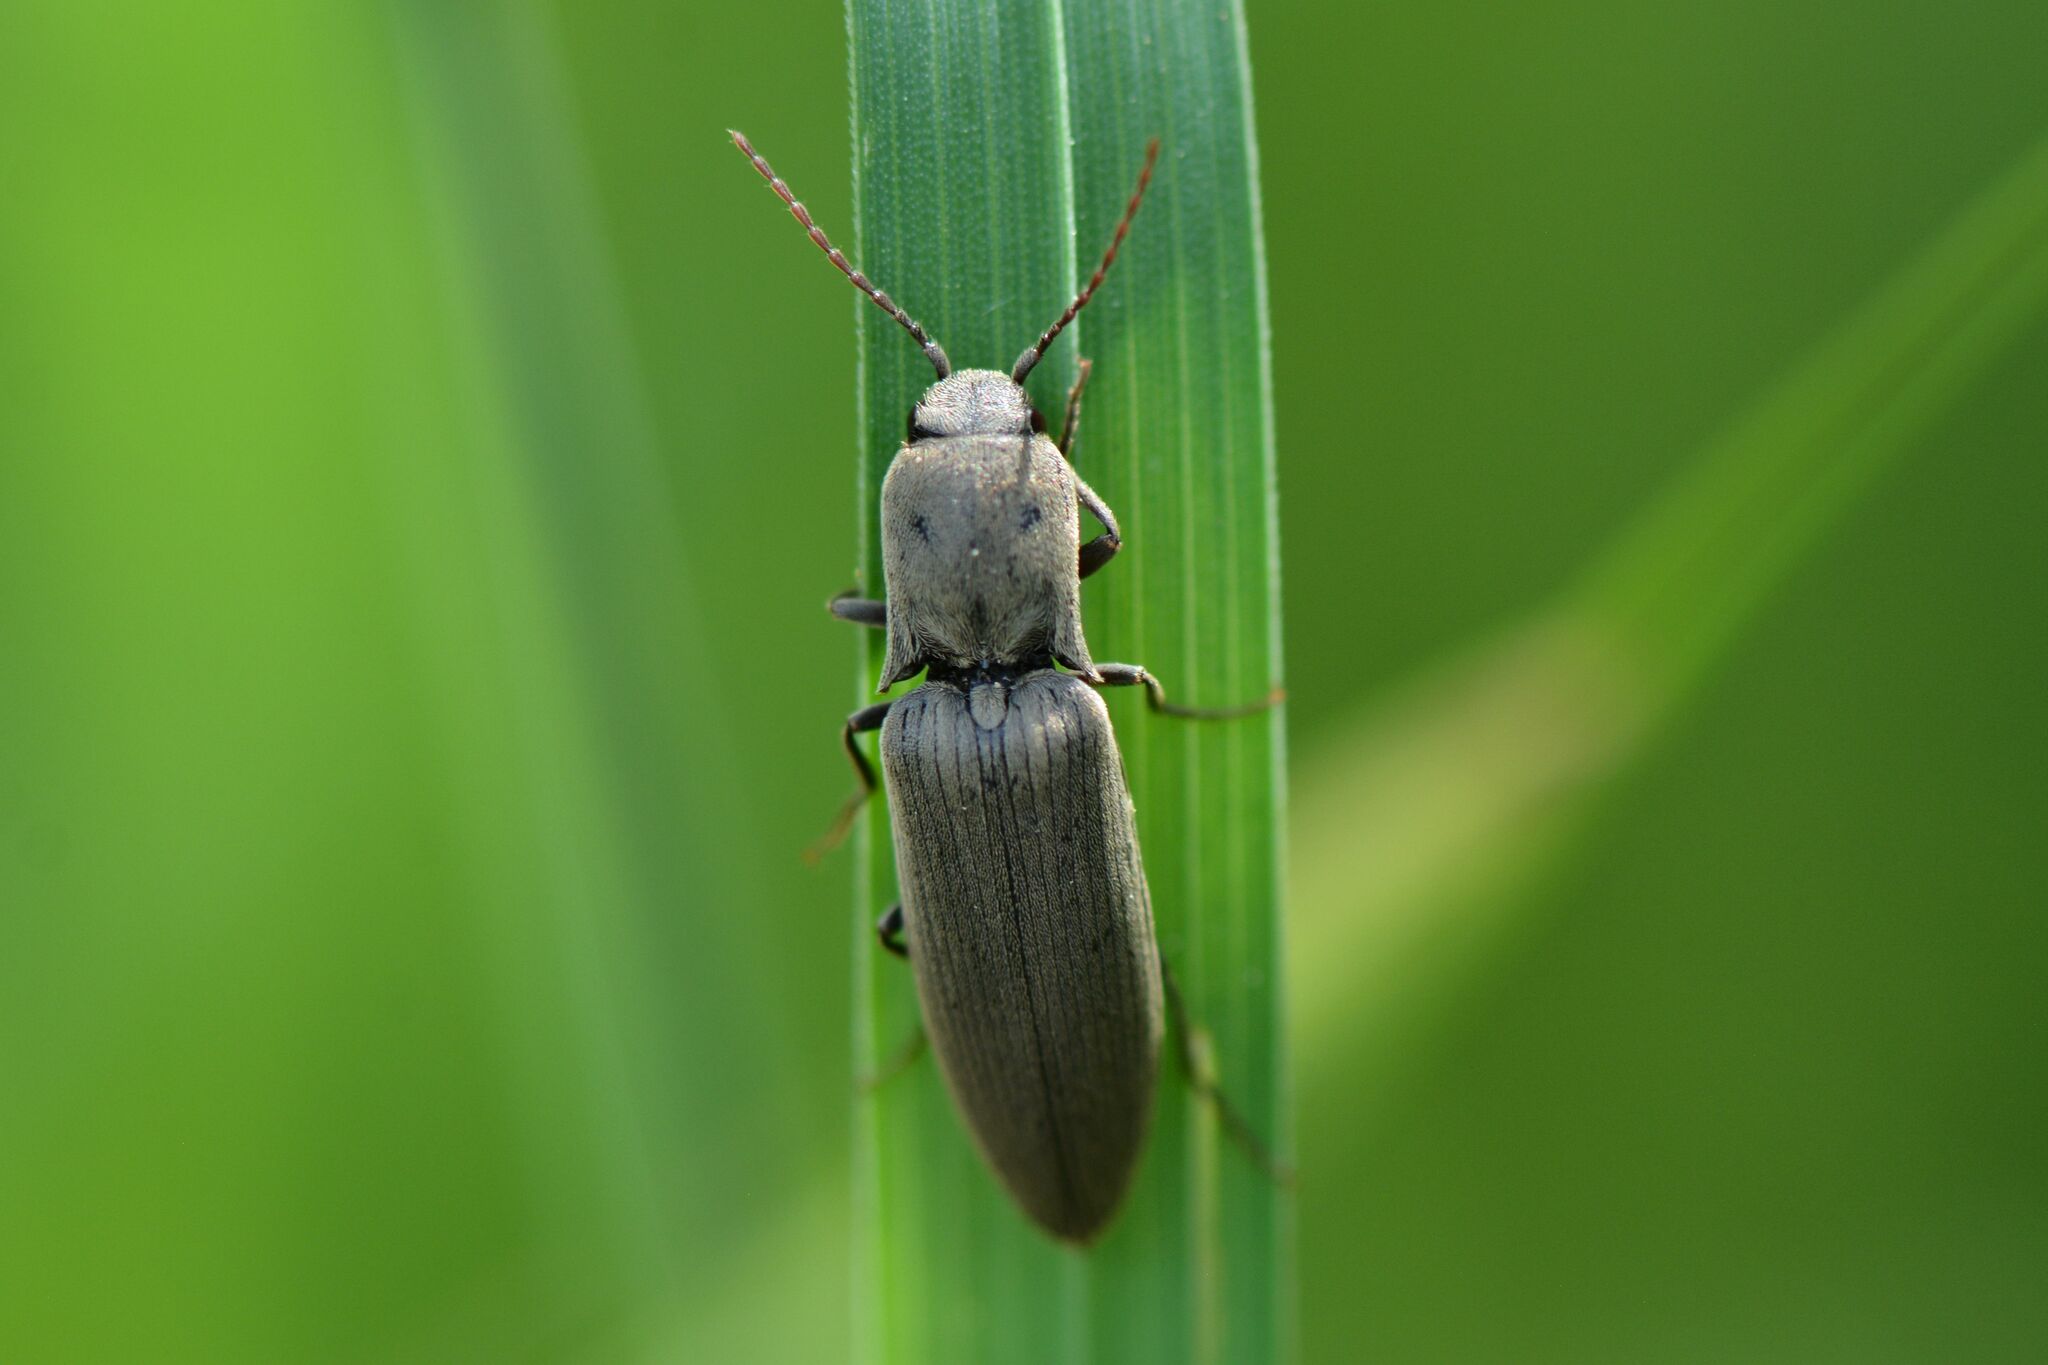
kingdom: Animalia
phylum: Arthropoda
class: Insecta
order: Coleoptera
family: Elateridae
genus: Agriotes
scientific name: Agriotes pilosellus
